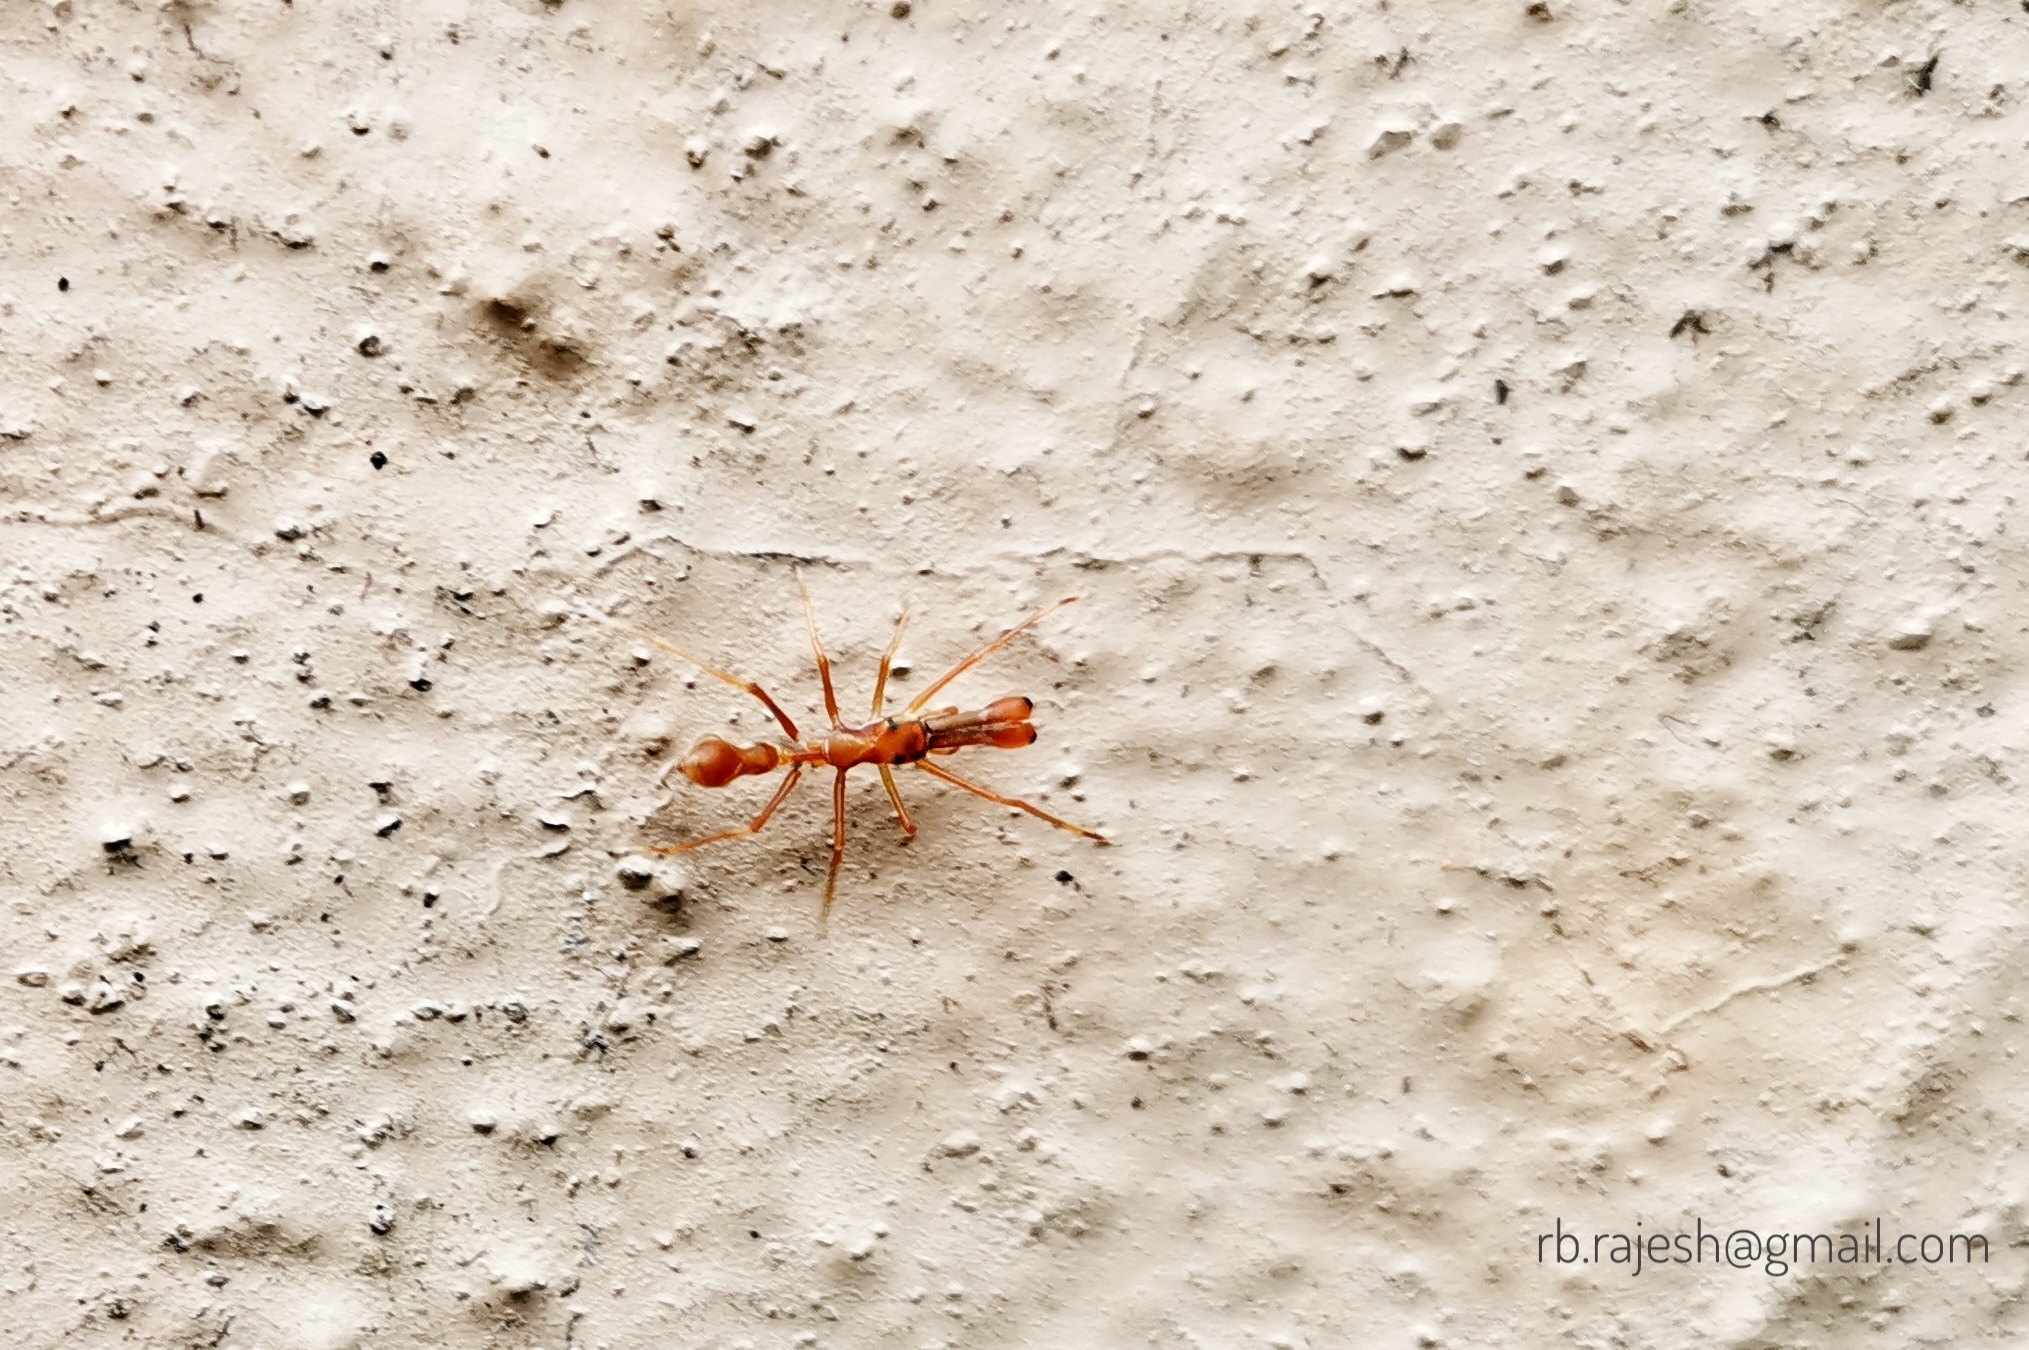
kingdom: Animalia
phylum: Arthropoda
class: Arachnida
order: Araneae
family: Salticidae
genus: Myrmaplata
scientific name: Myrmaplata plataleoides
